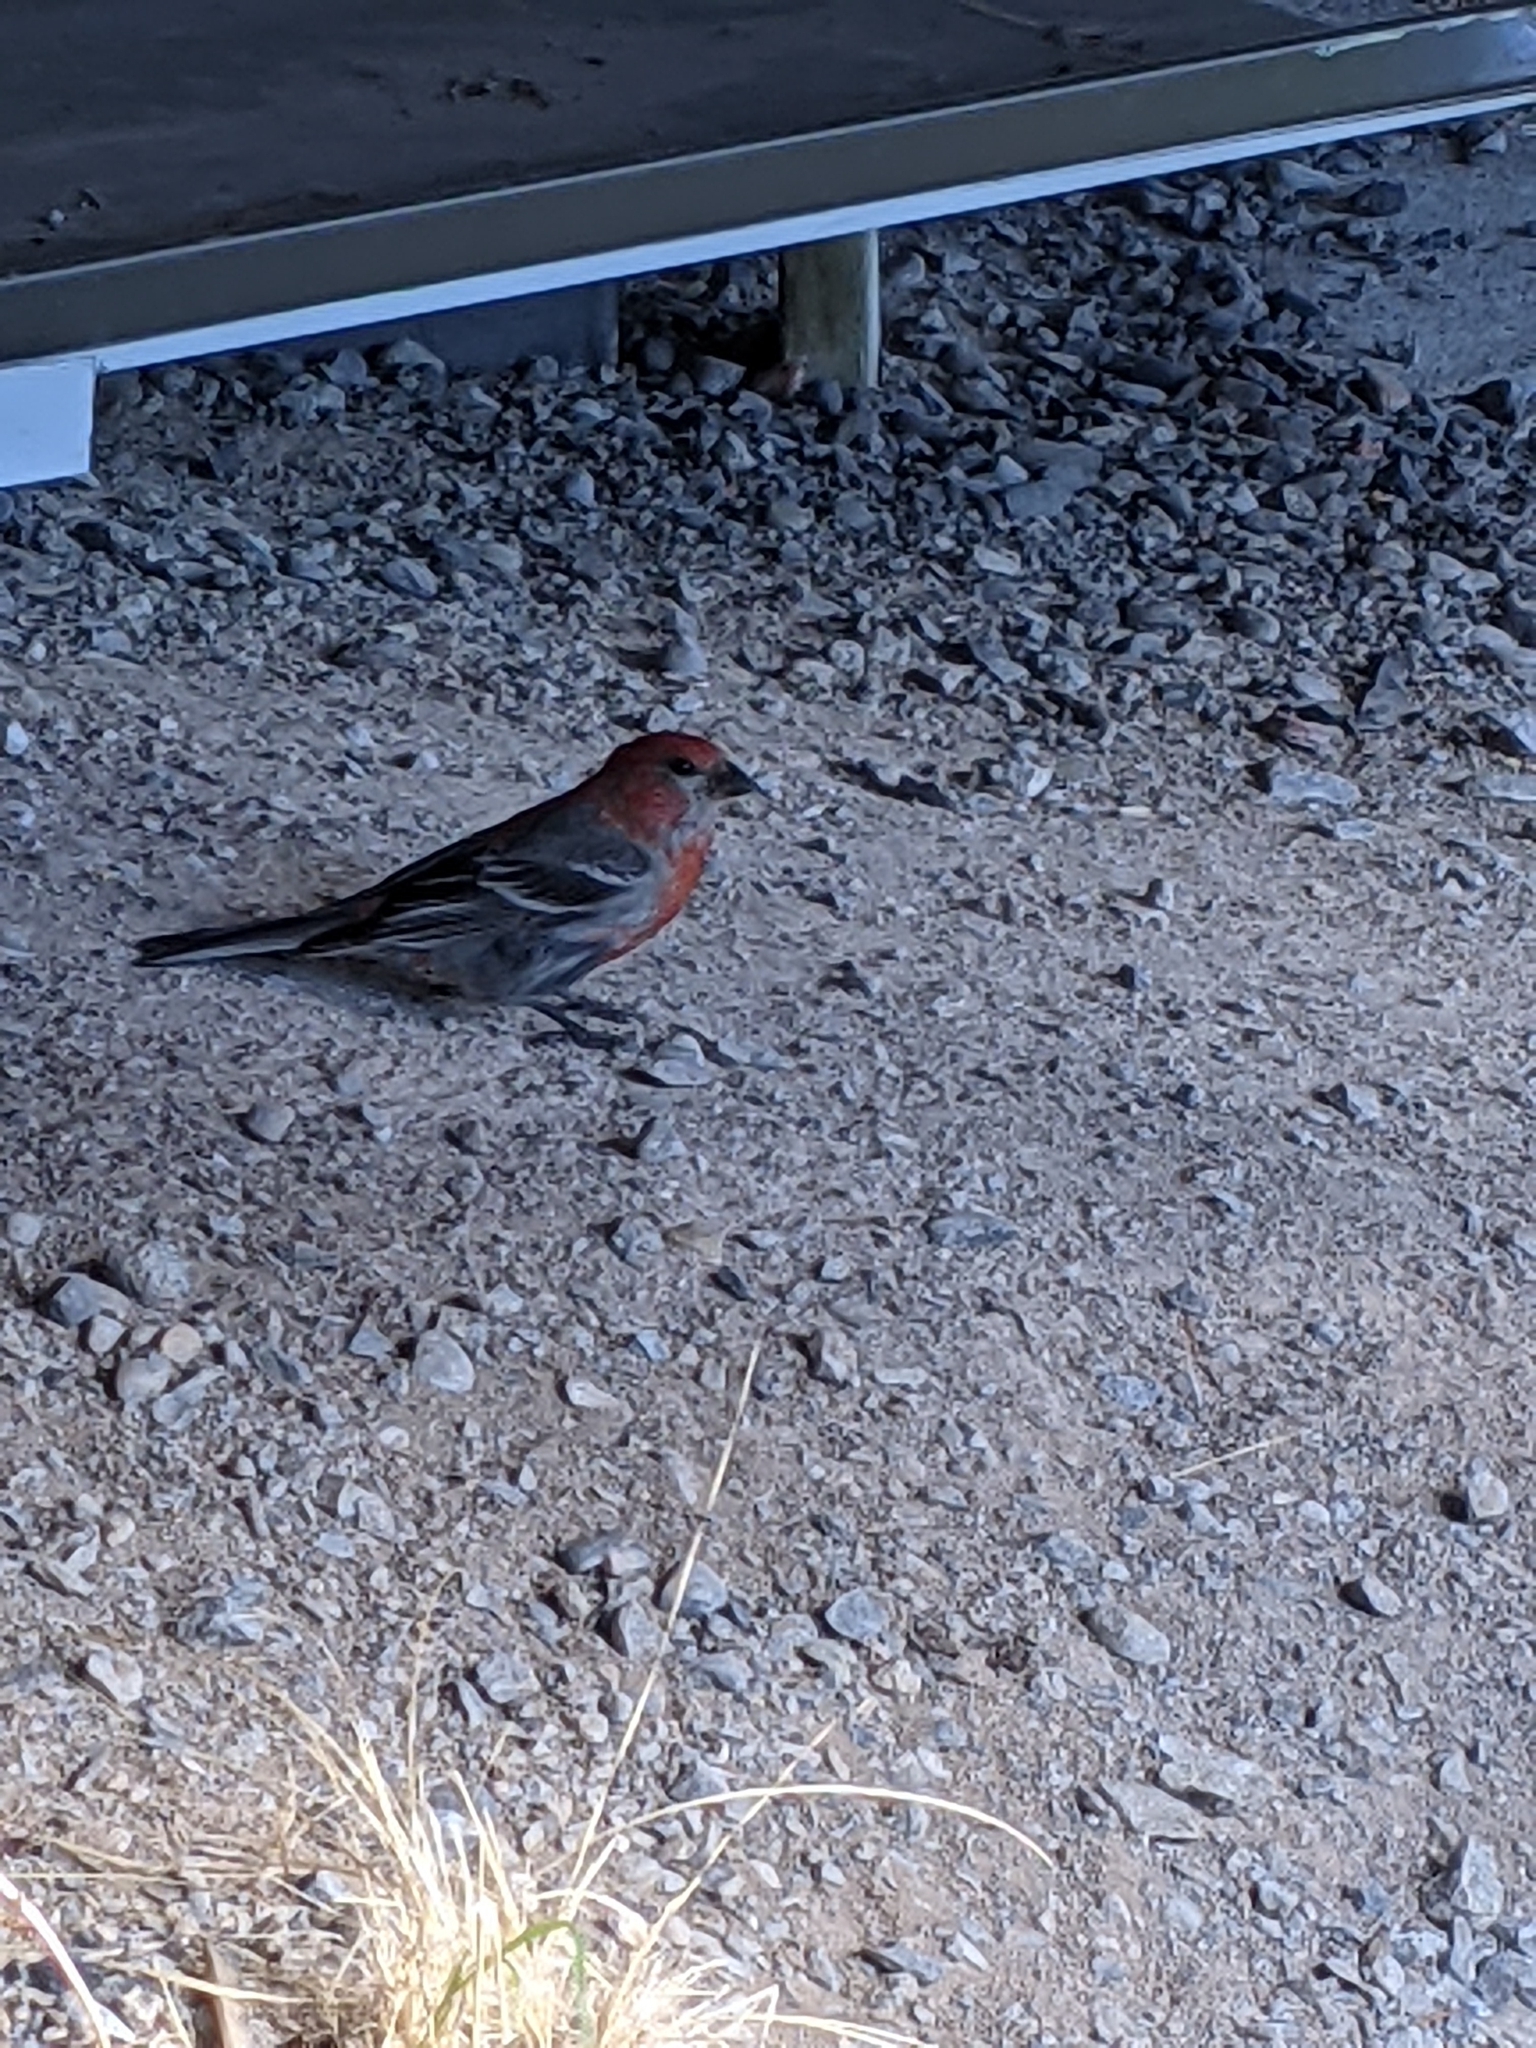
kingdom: Animalia
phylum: Chordata
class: Aves
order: Passeriformes
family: Fringillidae
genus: Pinicola
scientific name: Pinicola enucleator
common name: Pine grosbeak
